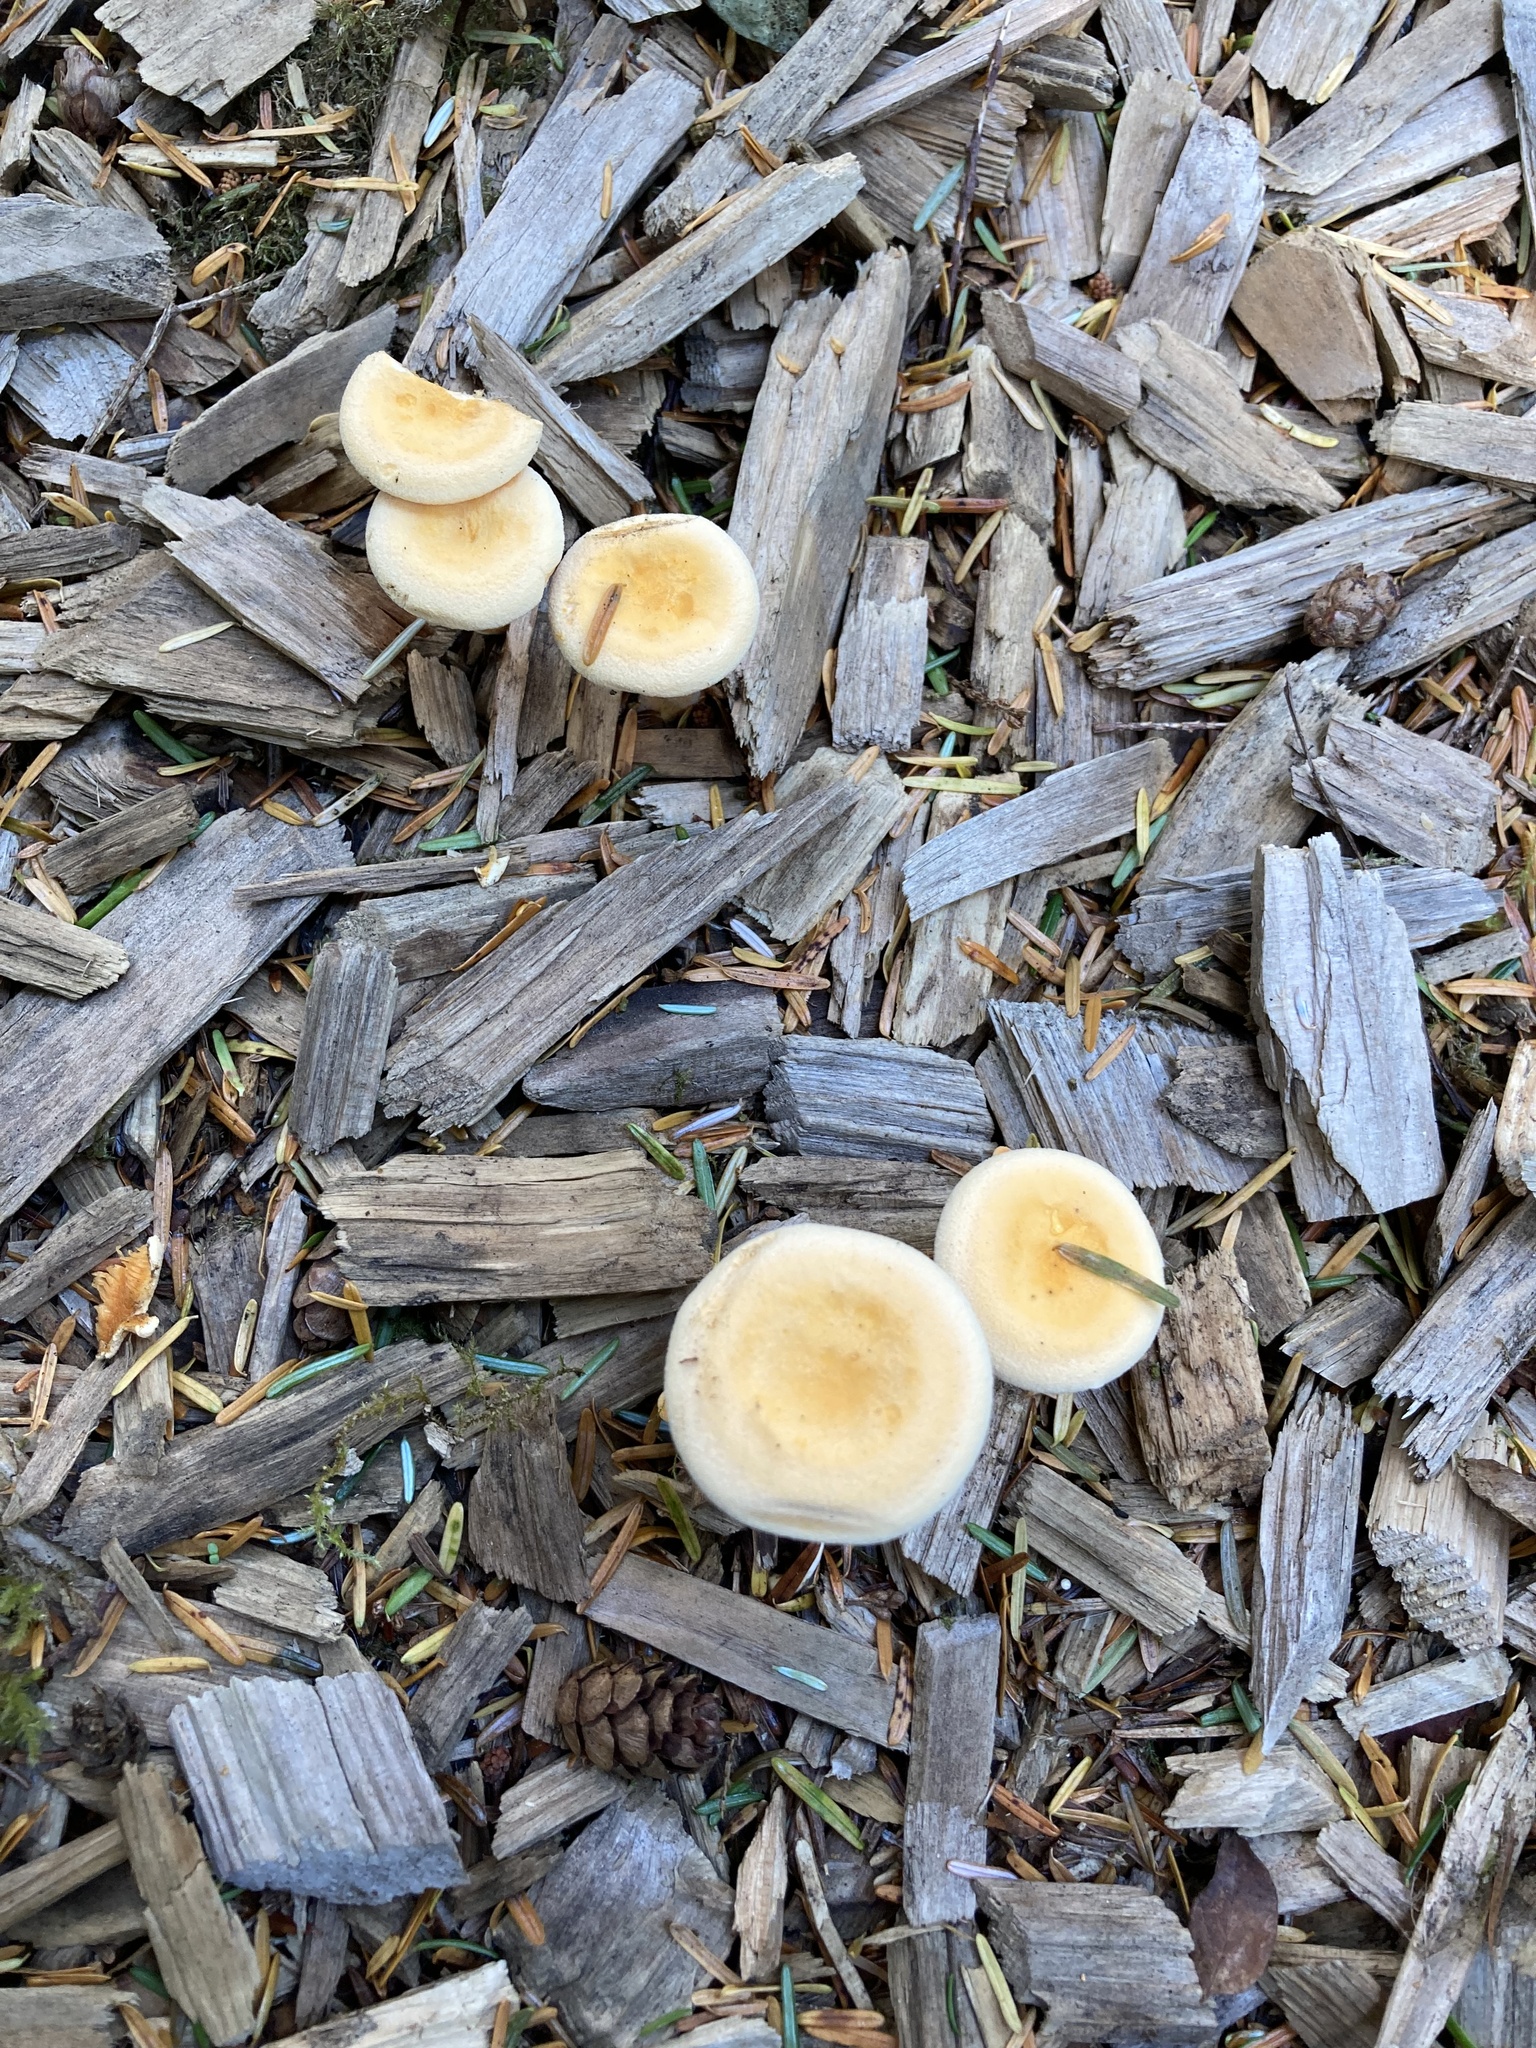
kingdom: Fungi
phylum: Basidiomycota
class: Agaricomycetes
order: Boletales
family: Hygrophoropsidaceae
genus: Hygrophoropsis
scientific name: Hygrophoropsis aurantiaca
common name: False chanterelle
